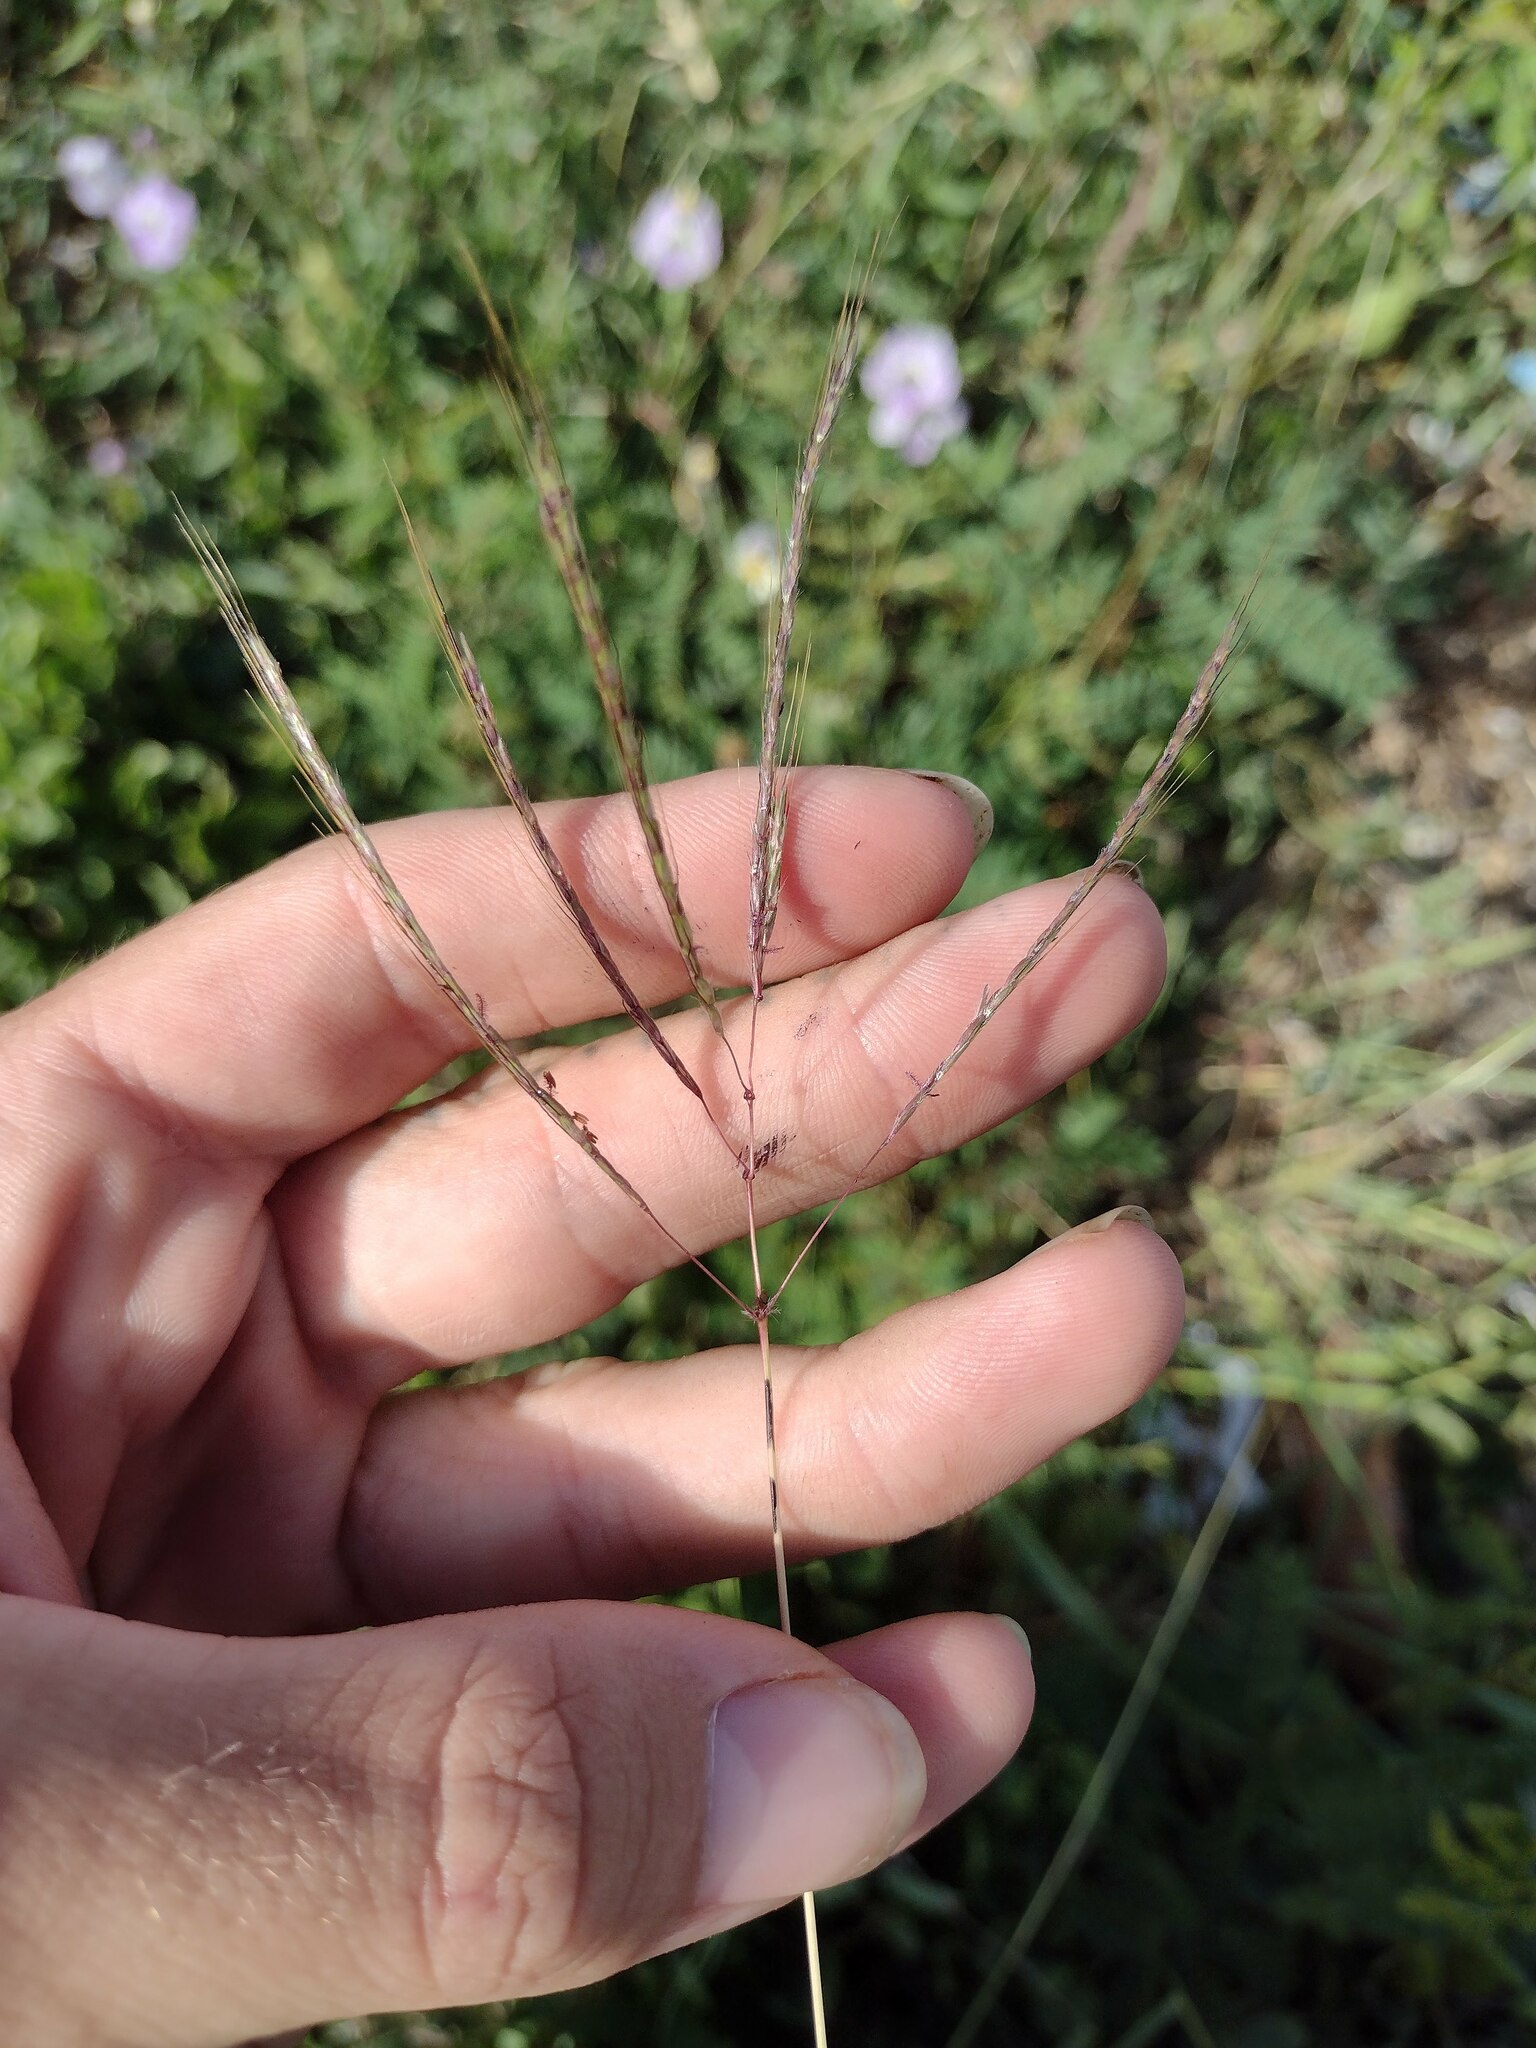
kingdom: Plantae
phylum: Tracheophyta
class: Liliopsida
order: Poales
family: Poaceae
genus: Dichanthium
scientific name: Dichanthium annulatum
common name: Kleberg's bluestem
